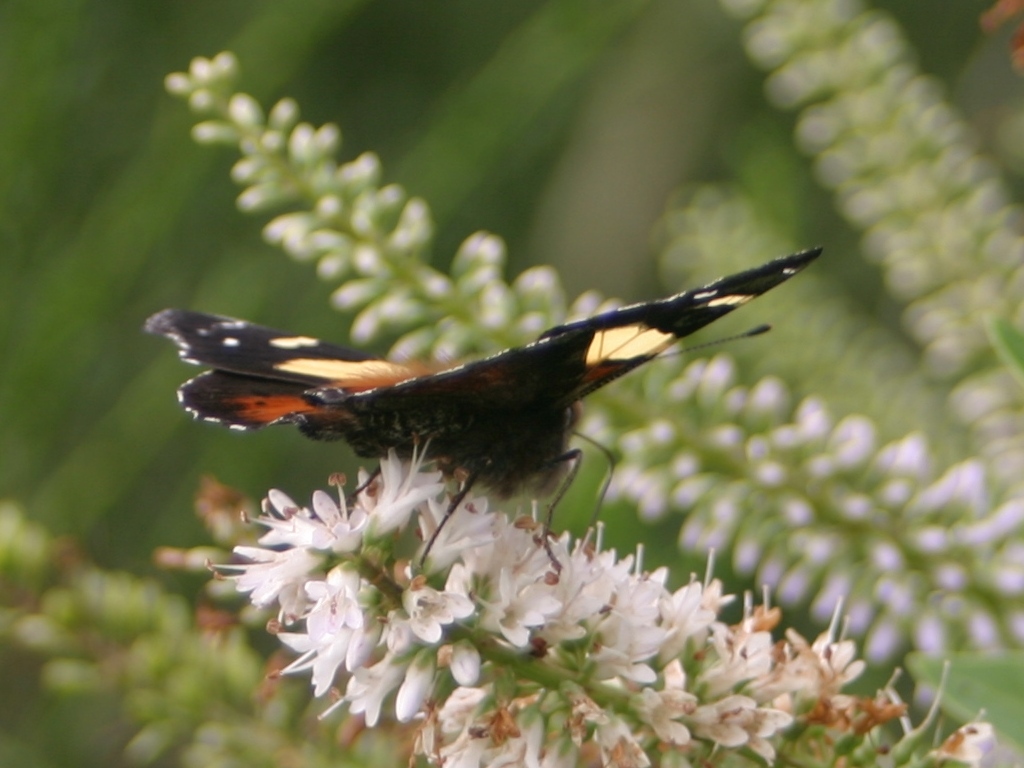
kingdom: Animalia
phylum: Arthropoda
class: Insecta
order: Lepidoptera
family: Nymphalidae
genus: Vanessa
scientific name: Vanessa itea
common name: Yellow admiral
